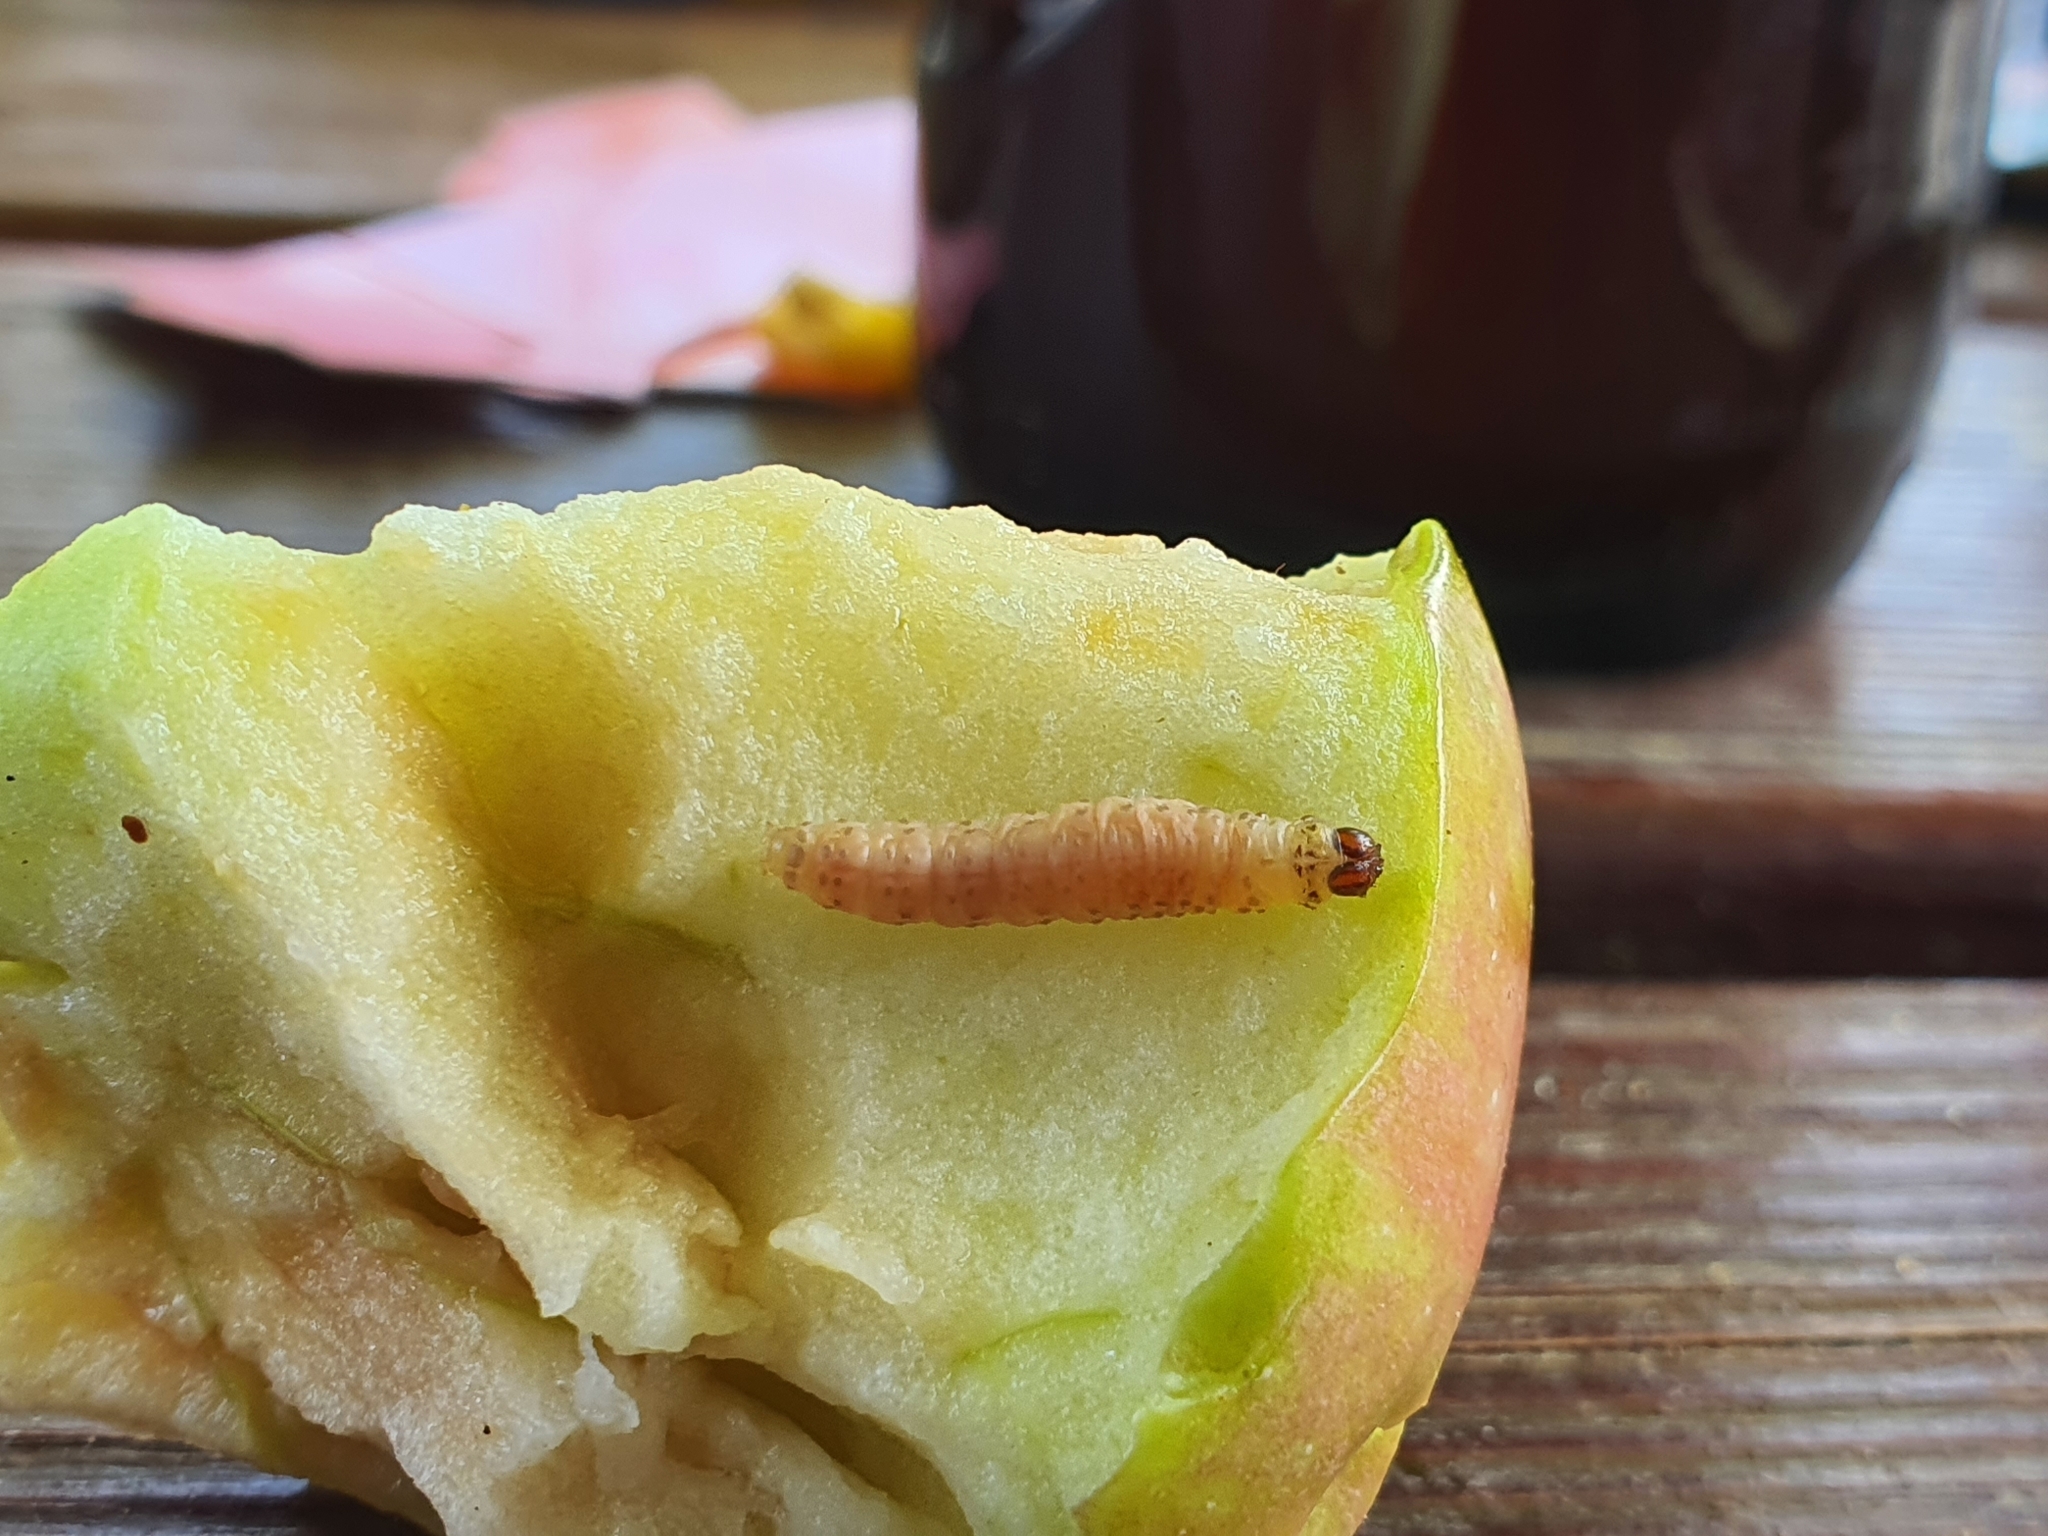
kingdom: Animalia
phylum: Arthropoda
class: Insecta
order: Lepidoptera
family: Tortricidae
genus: Cydia
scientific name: Cydia pomonella
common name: Codling moth
